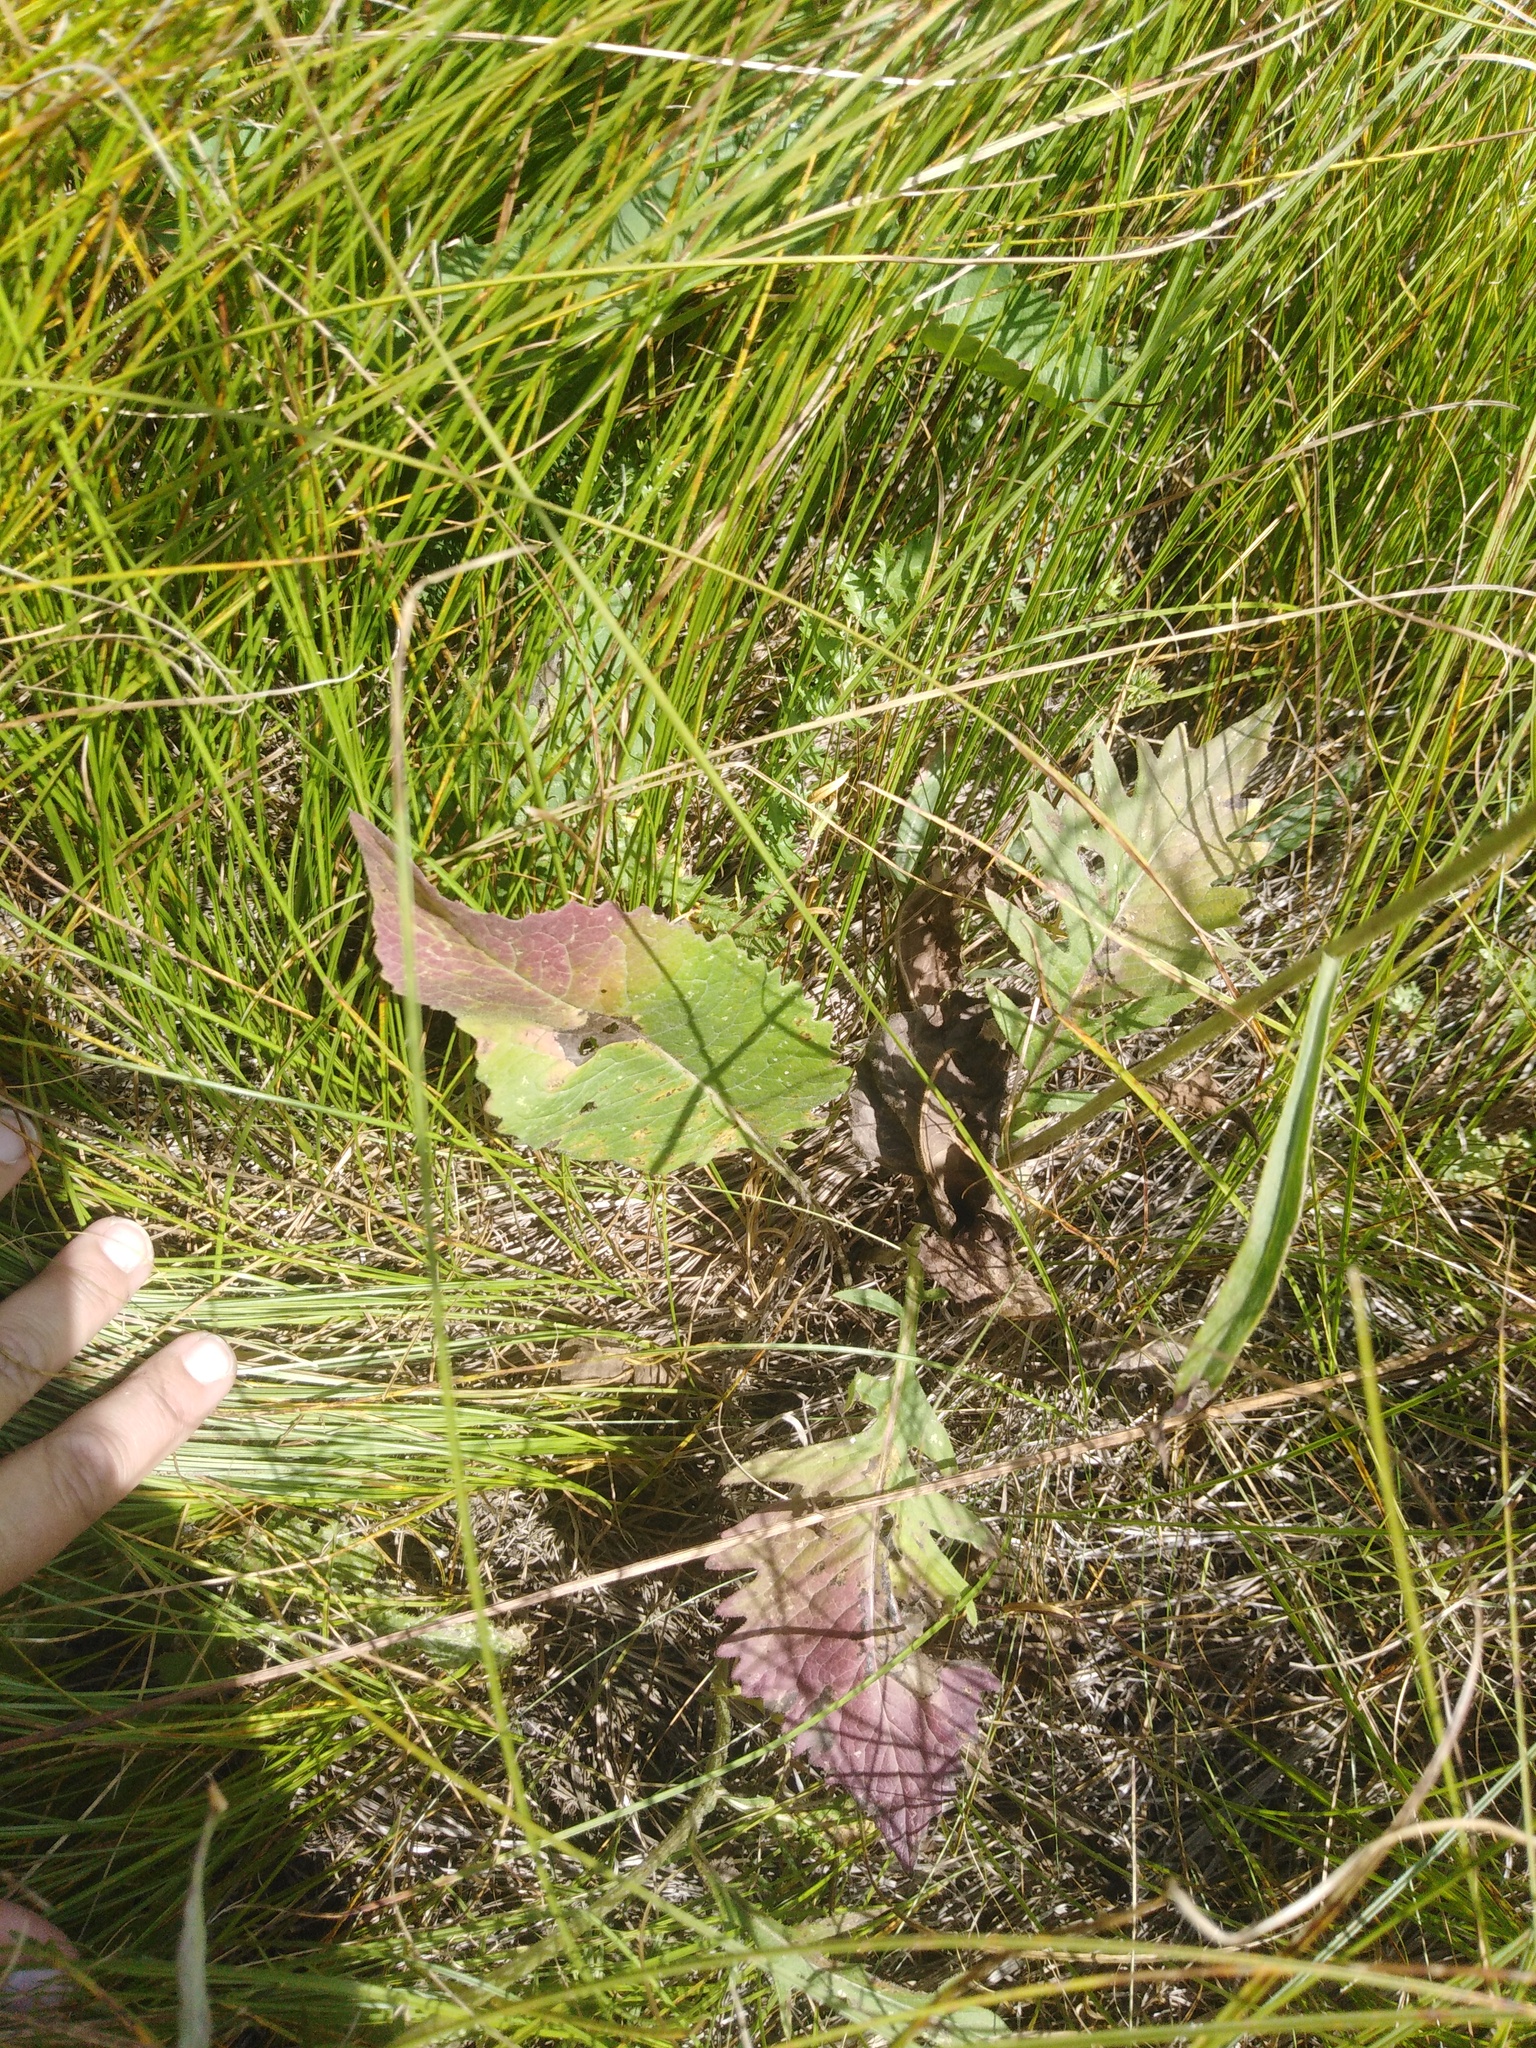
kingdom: Plantae
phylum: Tracheophyta
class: Magnoliopsida
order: Asterales
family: Asteraceae
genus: Klasea
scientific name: Klasea lycopifolia
